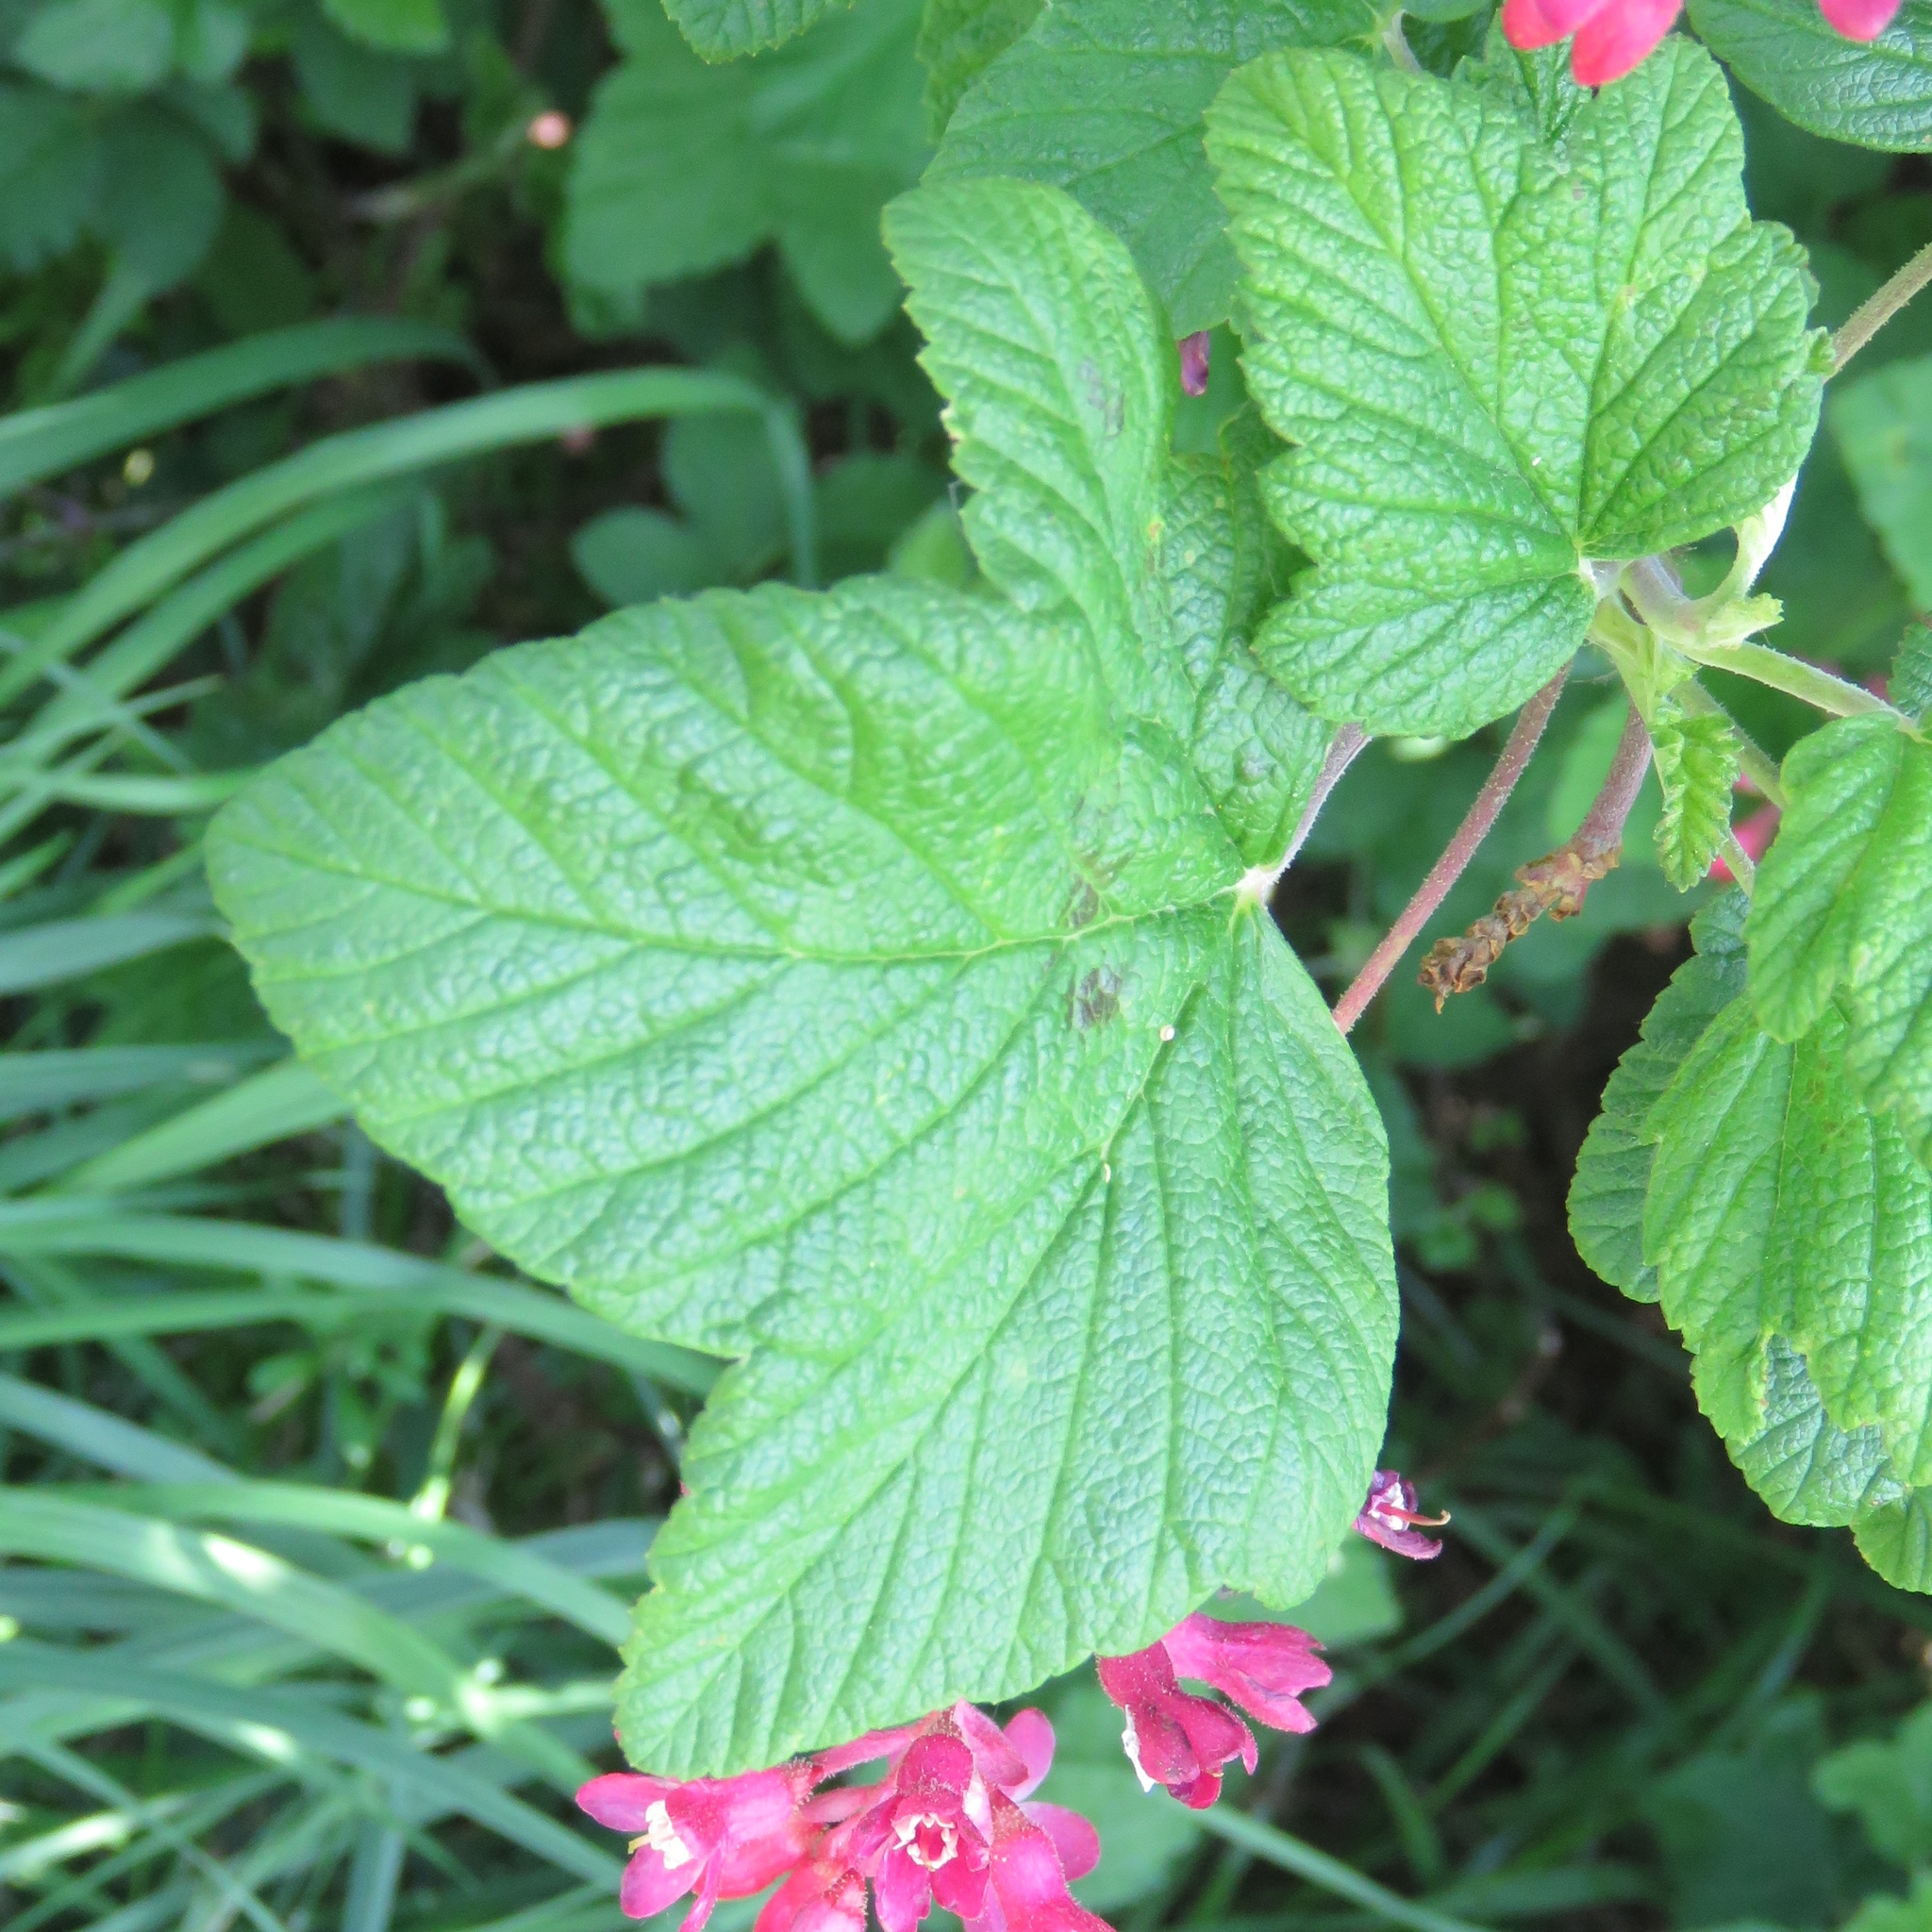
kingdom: Plantae
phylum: Tracheophyta
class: Magnoliopsida
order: Saxifragales
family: Grossulariaceae
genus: Ribes
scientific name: Ribes sanguineum
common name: Flowering currant
